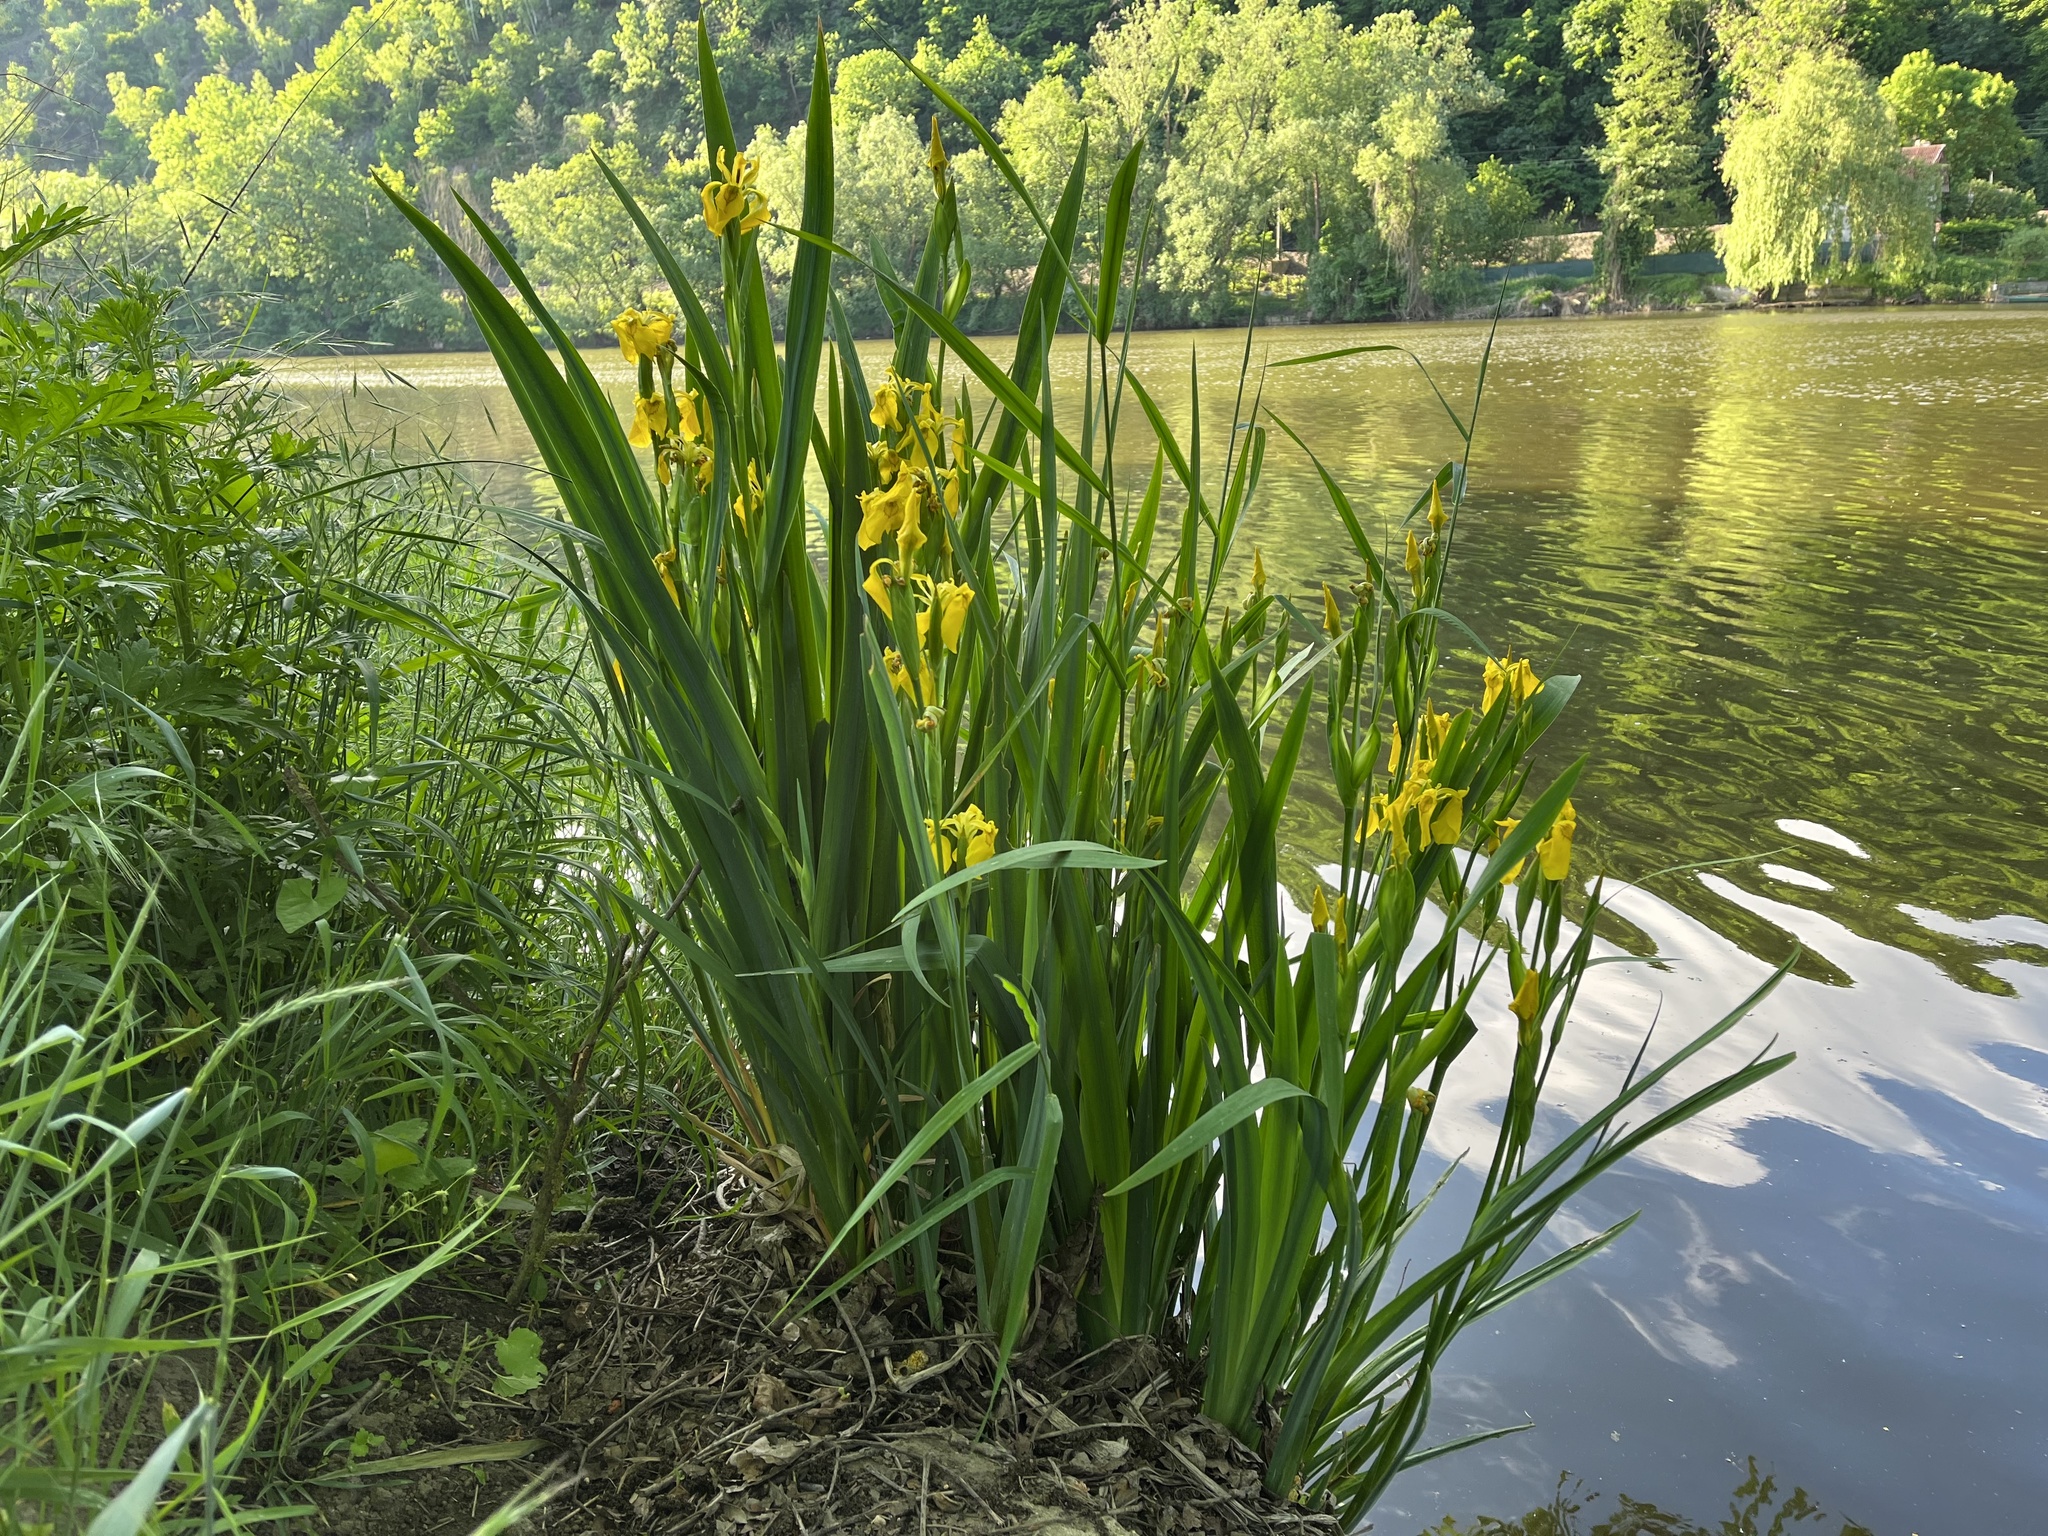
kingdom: Plantae
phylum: Tracheophyta
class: Liliopsida
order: Asparagales
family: Iridaceae
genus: Iris
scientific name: Iris pseudacorus
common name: Yellow flag
